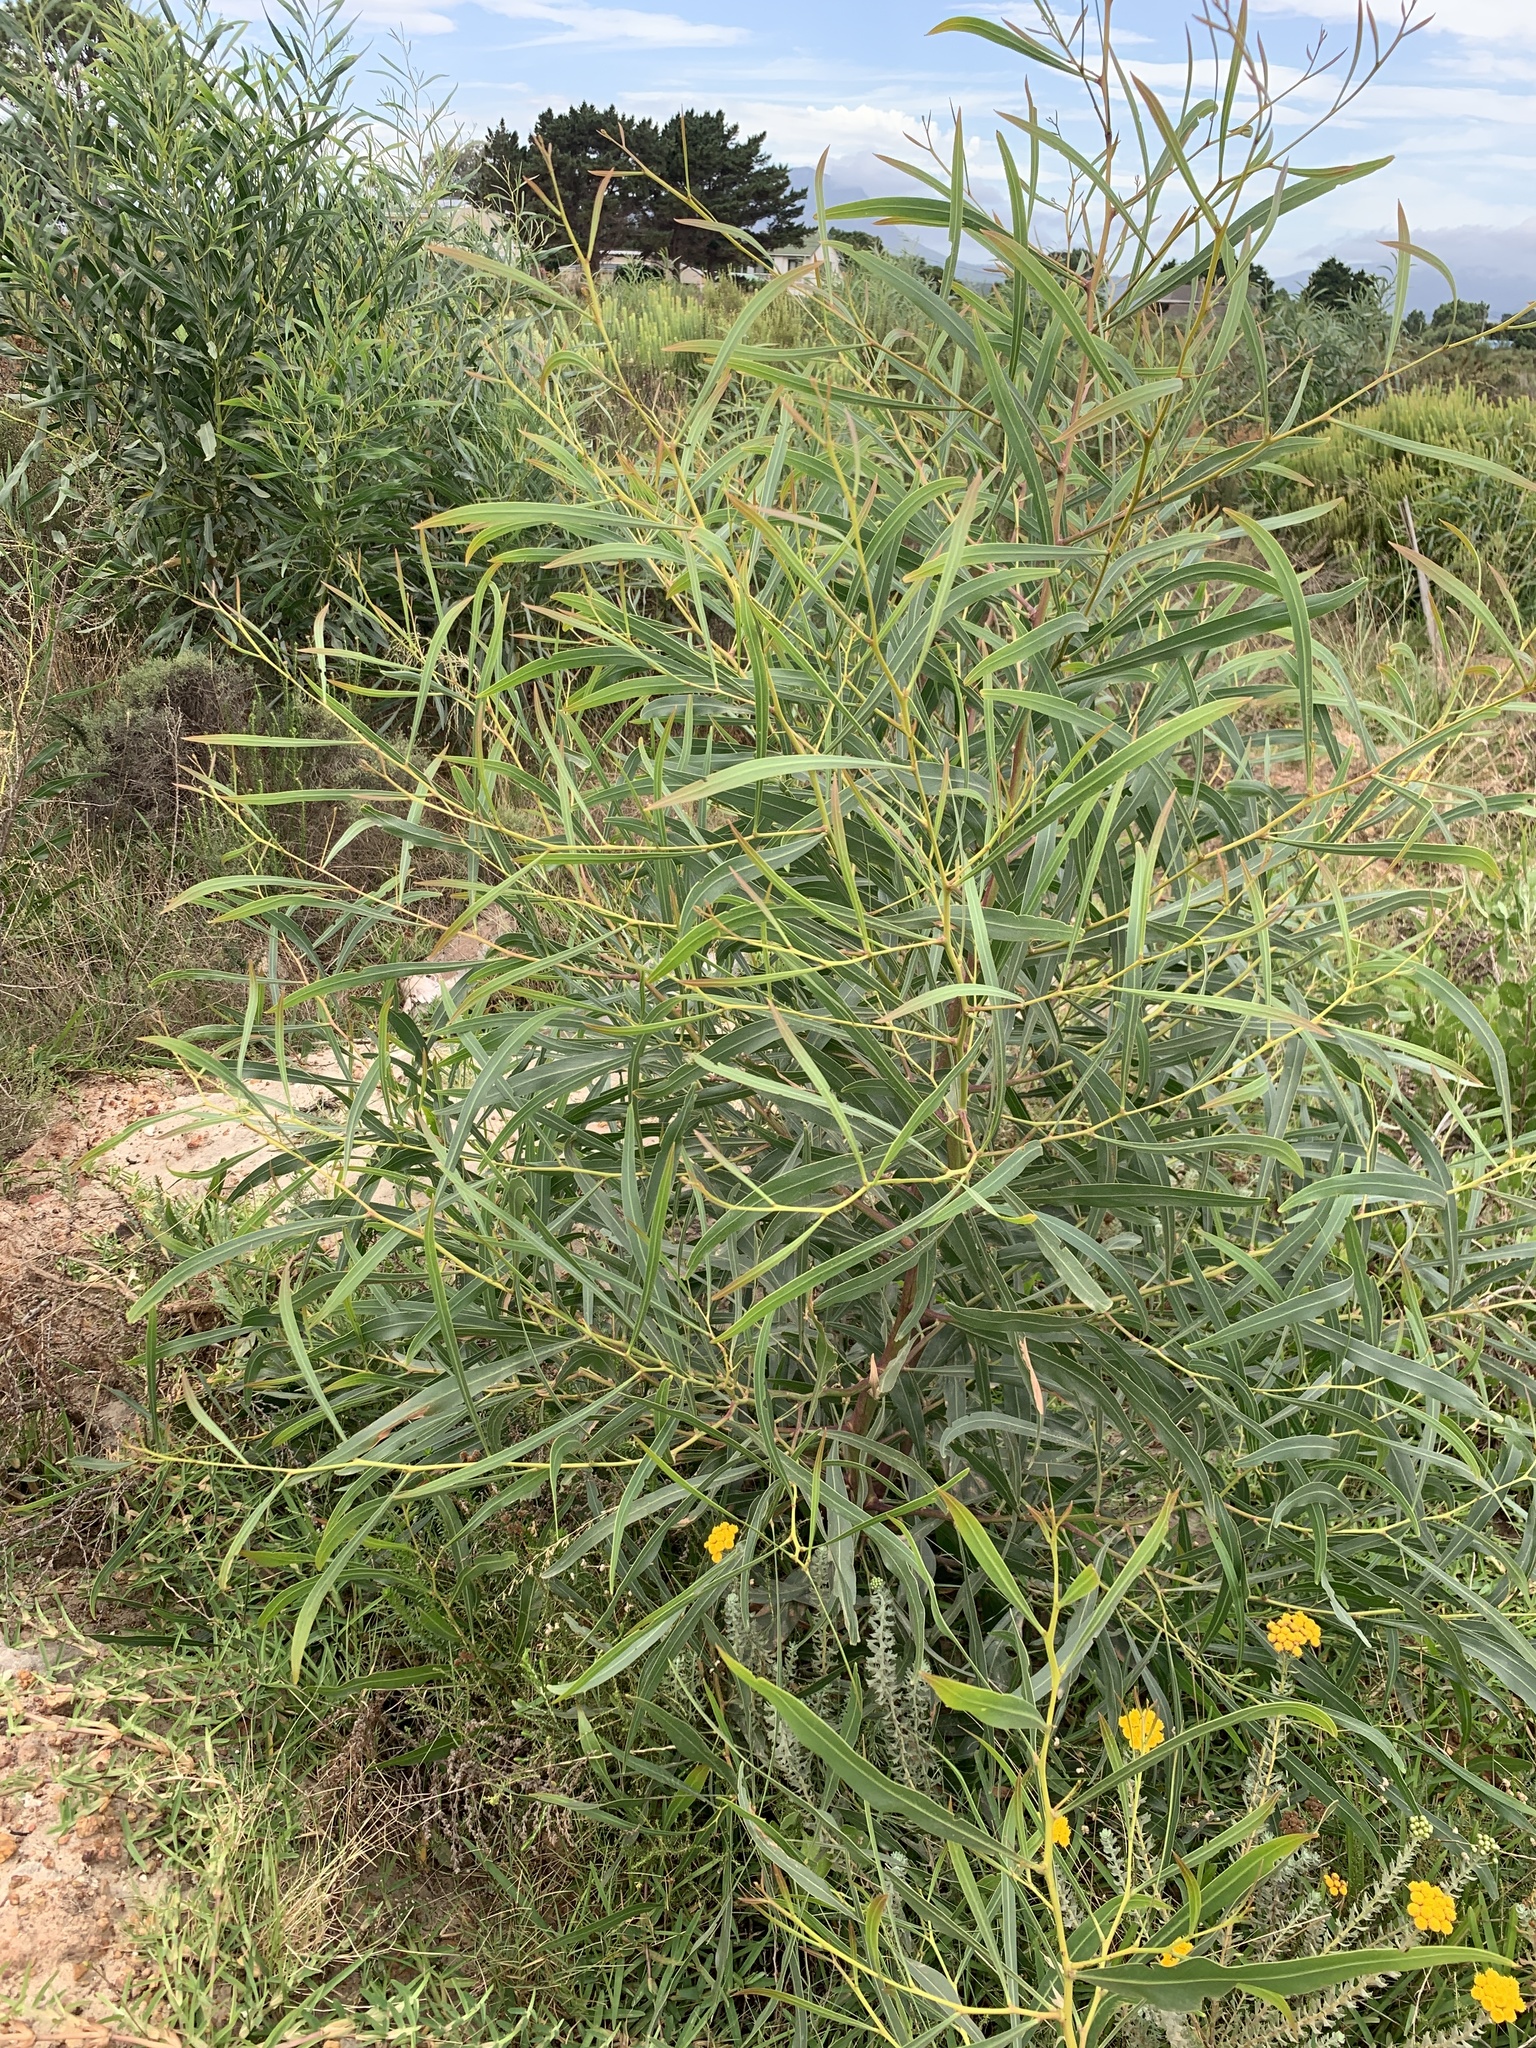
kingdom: Plantae
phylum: Tracheophyta
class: Magnoliopsida
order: Fabales
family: Fabaceae
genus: Acacia
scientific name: Acacia saligna
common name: Orange wattle
